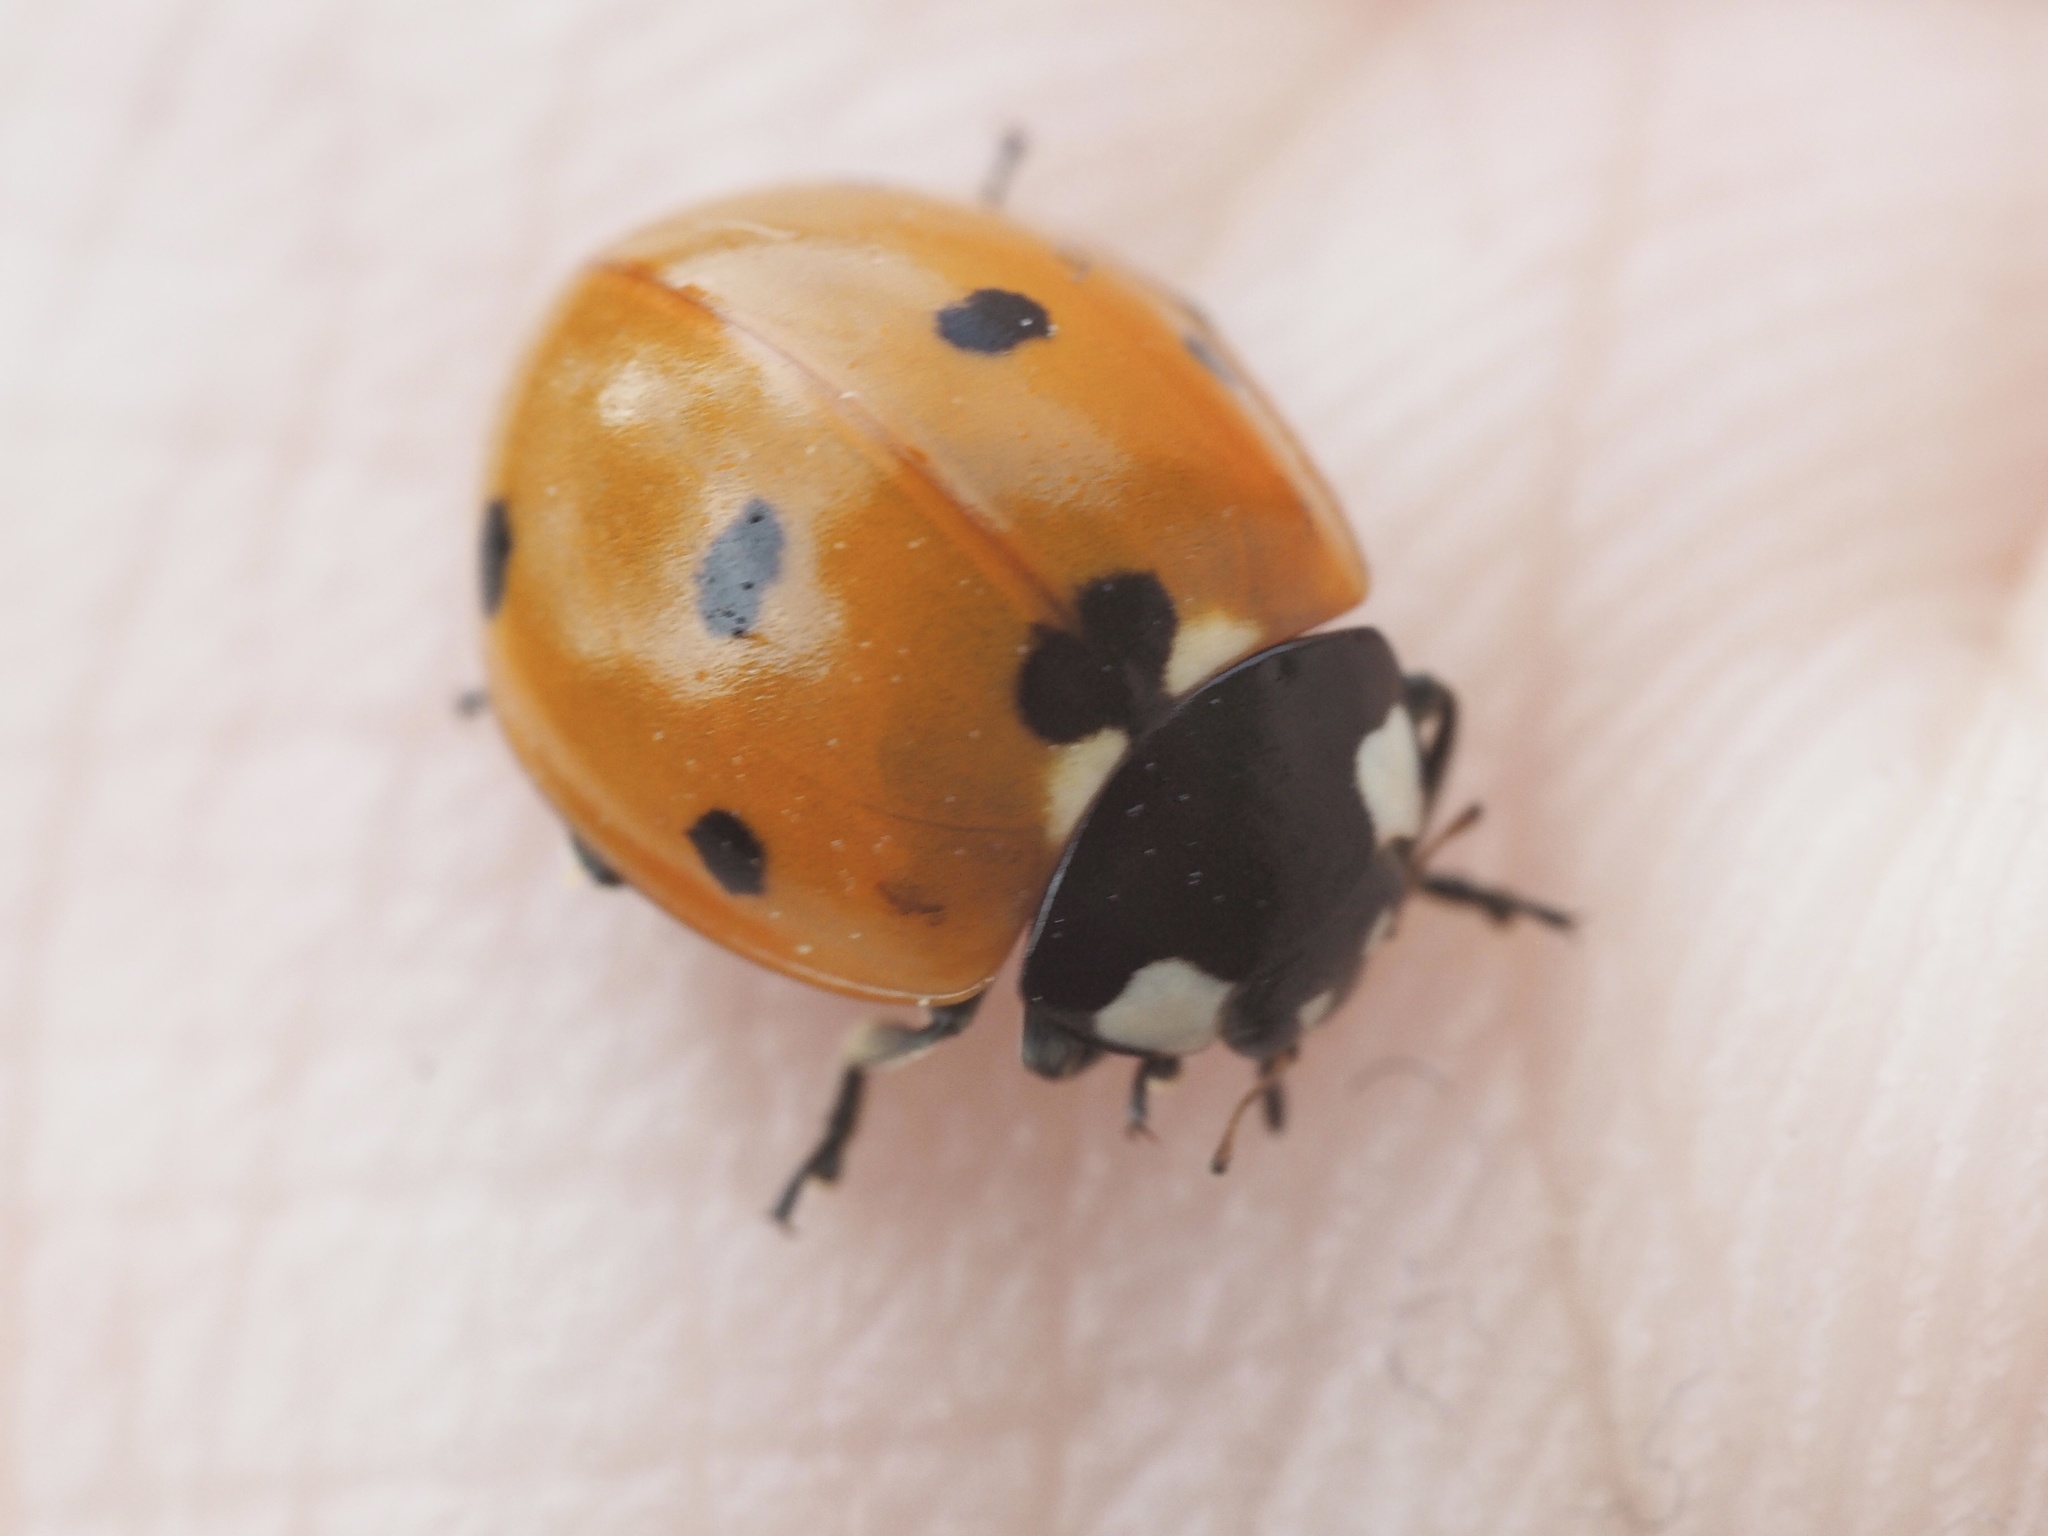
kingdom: Animalia
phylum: Arthropoda
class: Insecta
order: Coleoptera
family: Coccinellidae
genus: Coccinella
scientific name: Coccinella septempunctata
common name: Sevenspotted lady beetle
